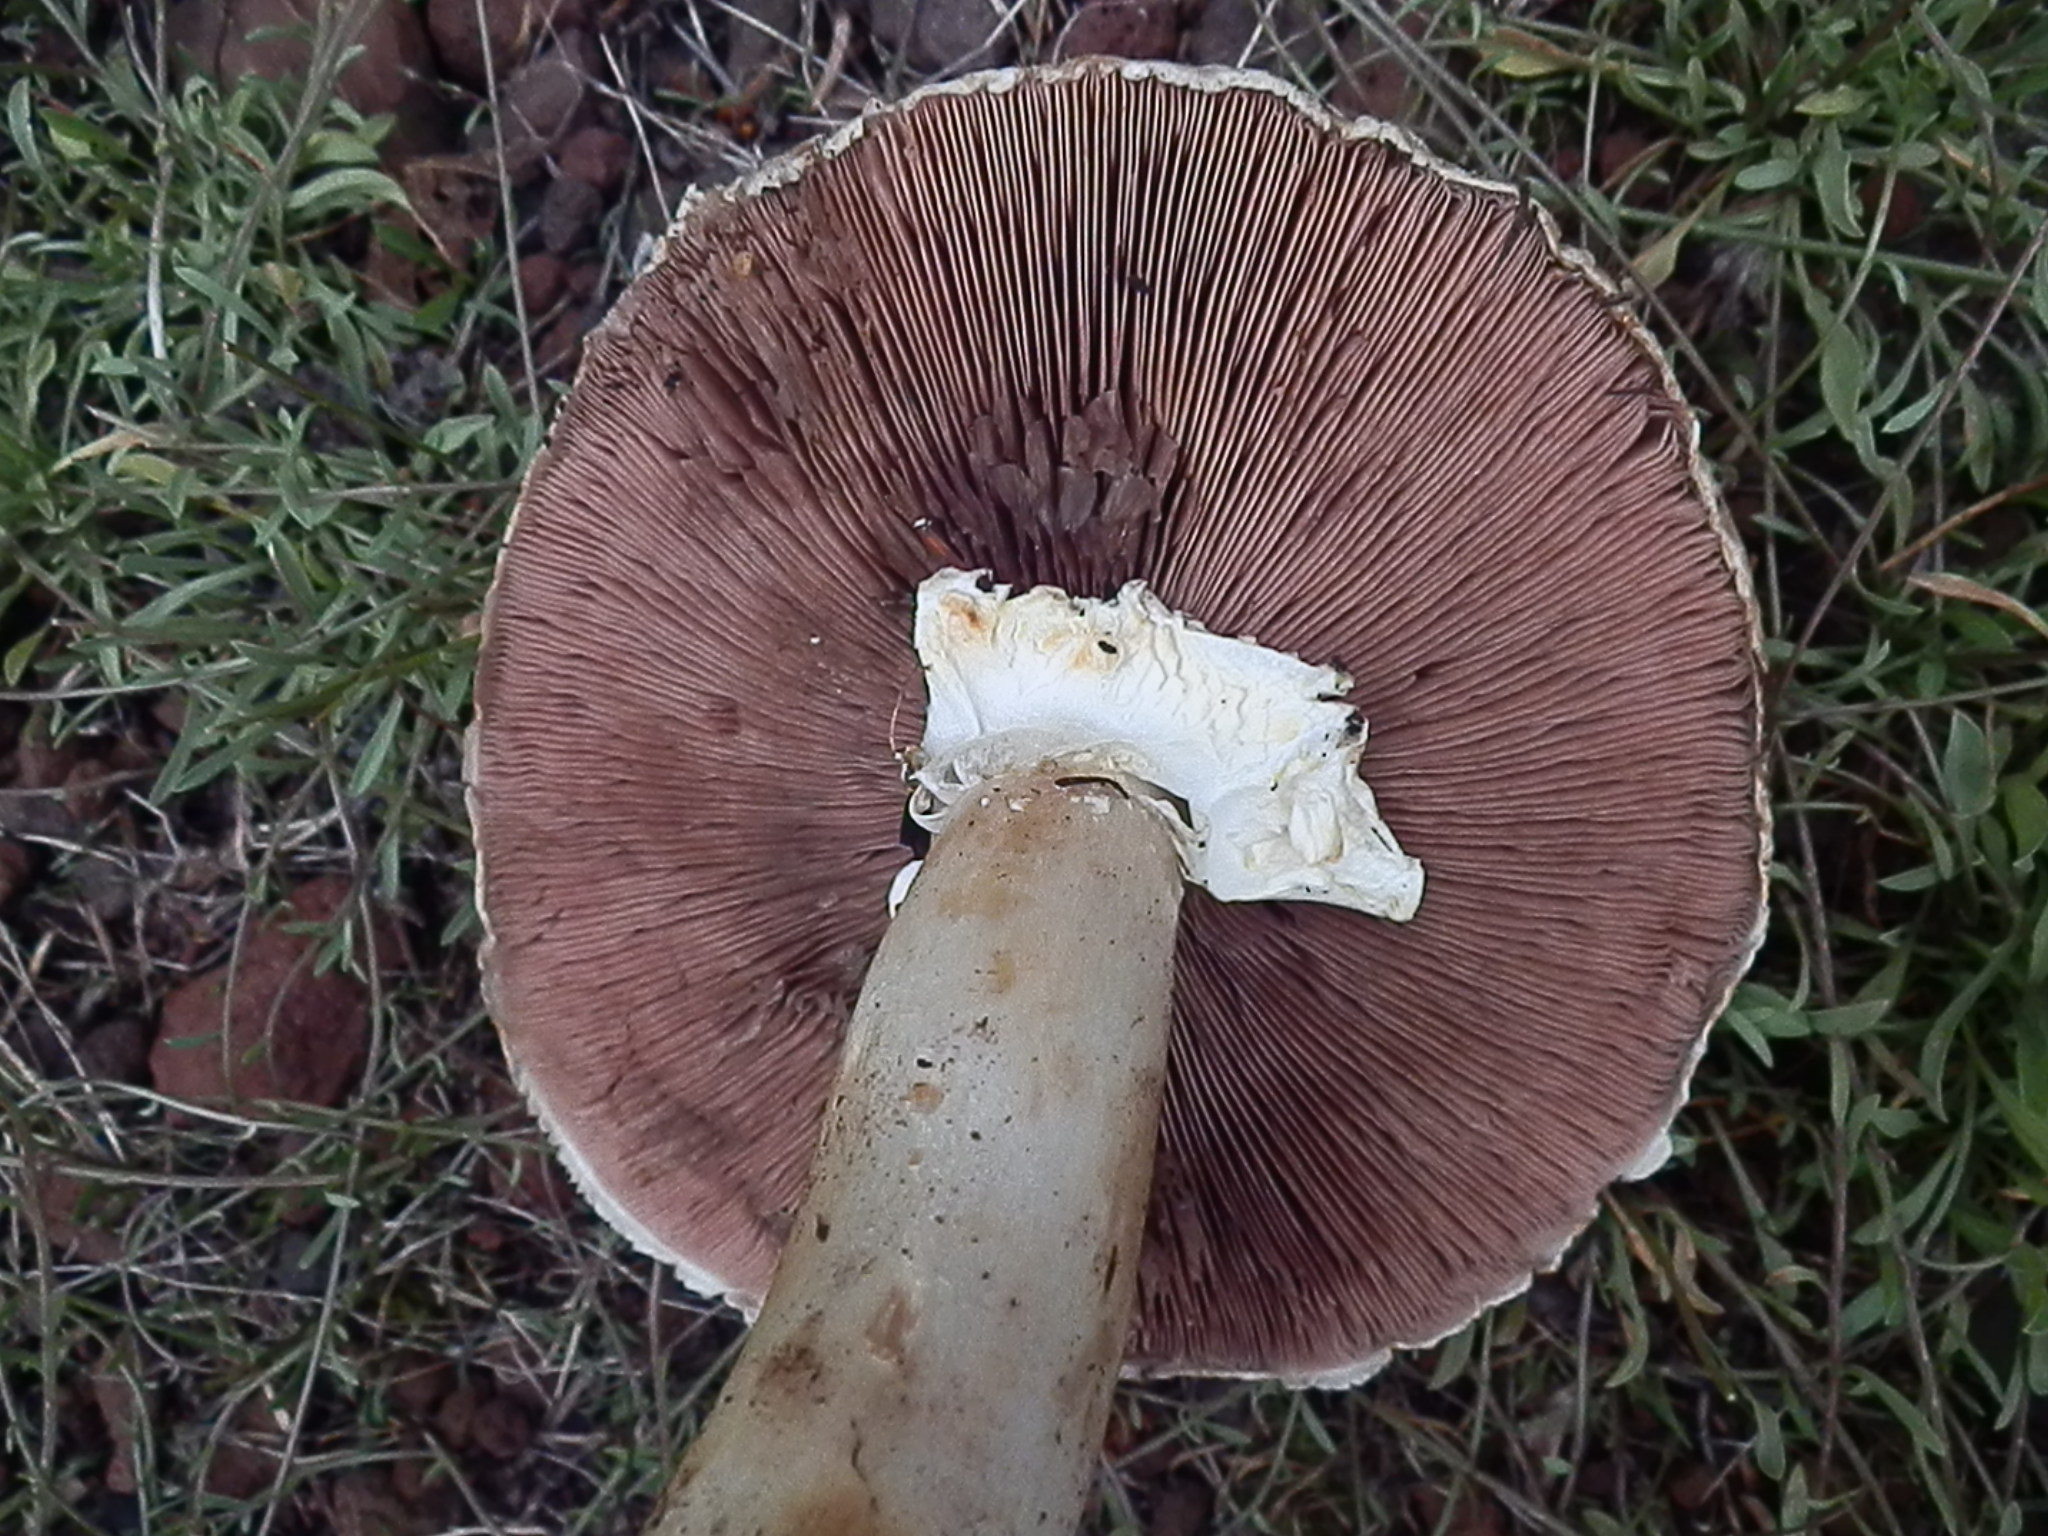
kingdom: Fungi
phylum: Basidiomycota
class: Agaricomycetes
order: Agaricales
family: Agaricaceae
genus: Agaricus
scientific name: Agaricus didymus
